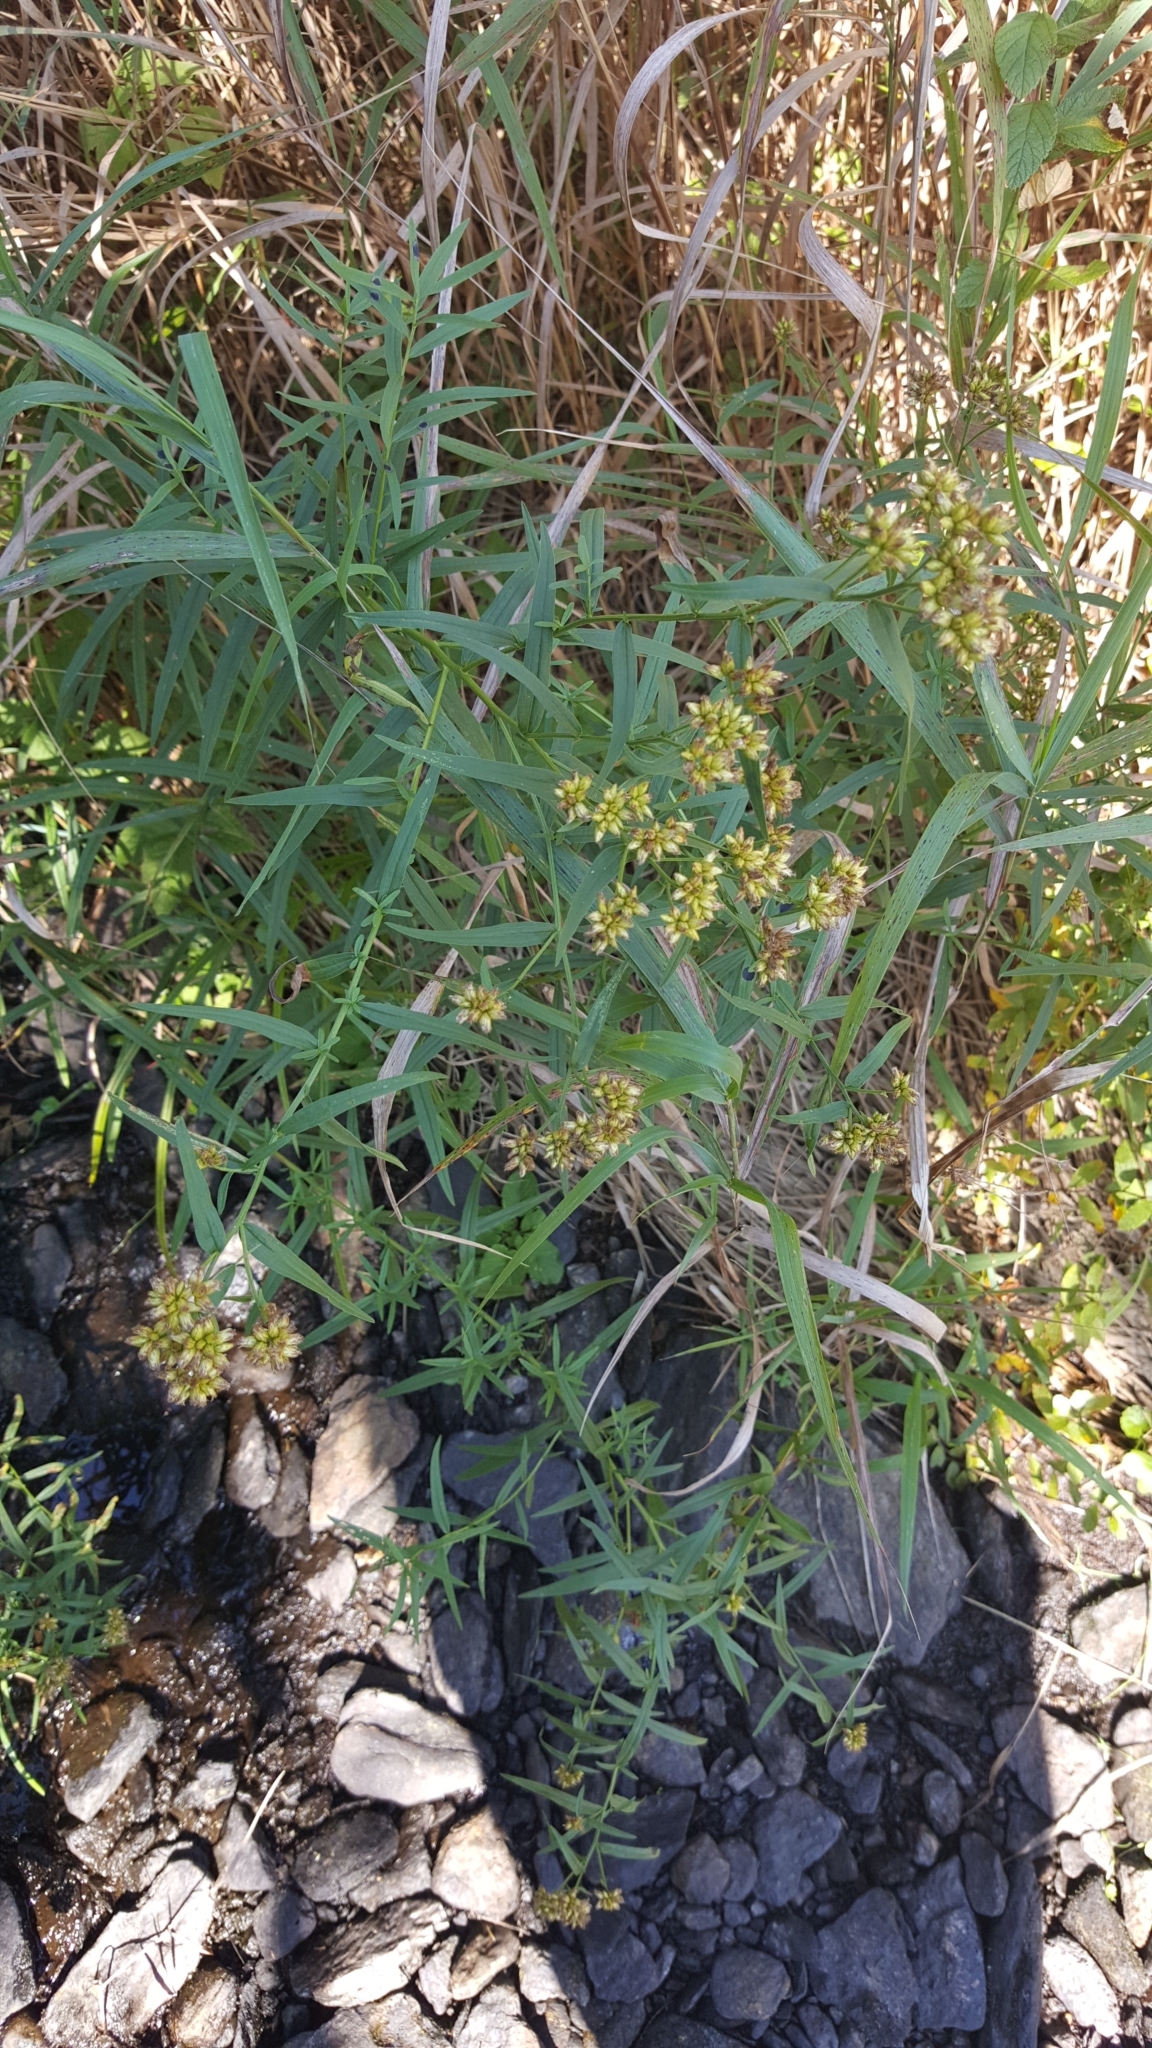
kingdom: Plantae
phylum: Tracheophyta
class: Magnoliopsida
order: Asterales
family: Asteraceae
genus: Euthamia
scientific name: Euthamia graminifolia
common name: Common goldentop
